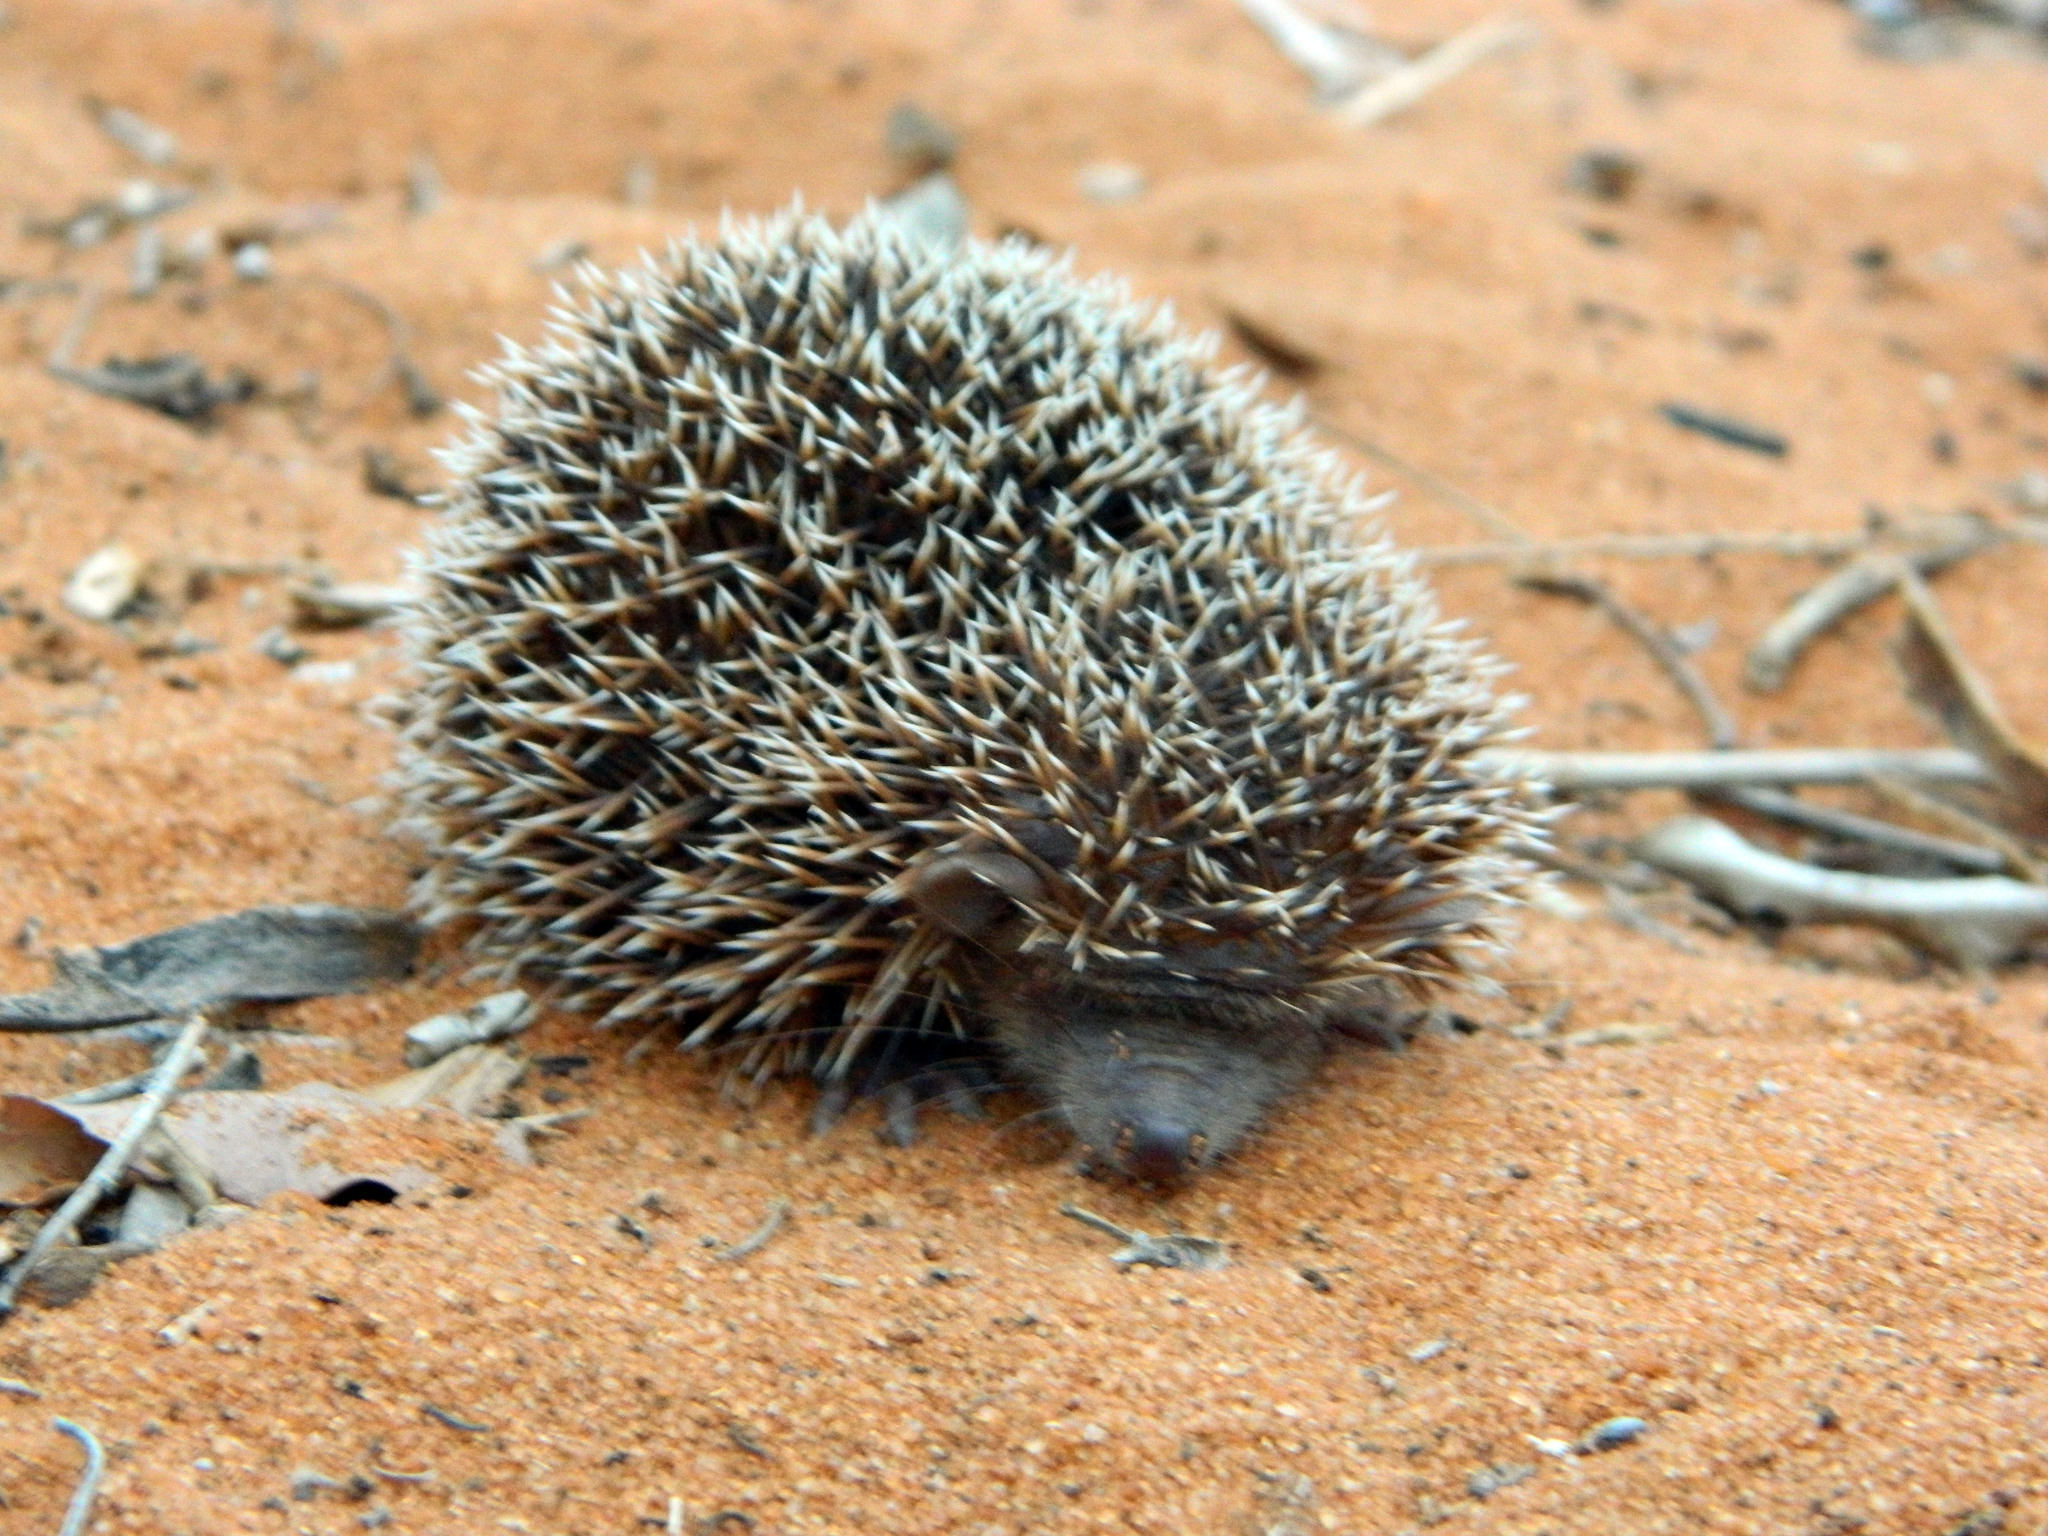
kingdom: Animalia
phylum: Chordata
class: Mammalia
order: Afrosoricida
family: Tenrecidae
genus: Echinops
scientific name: Echinops telfairi
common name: Lesser hedgehog tenrec
